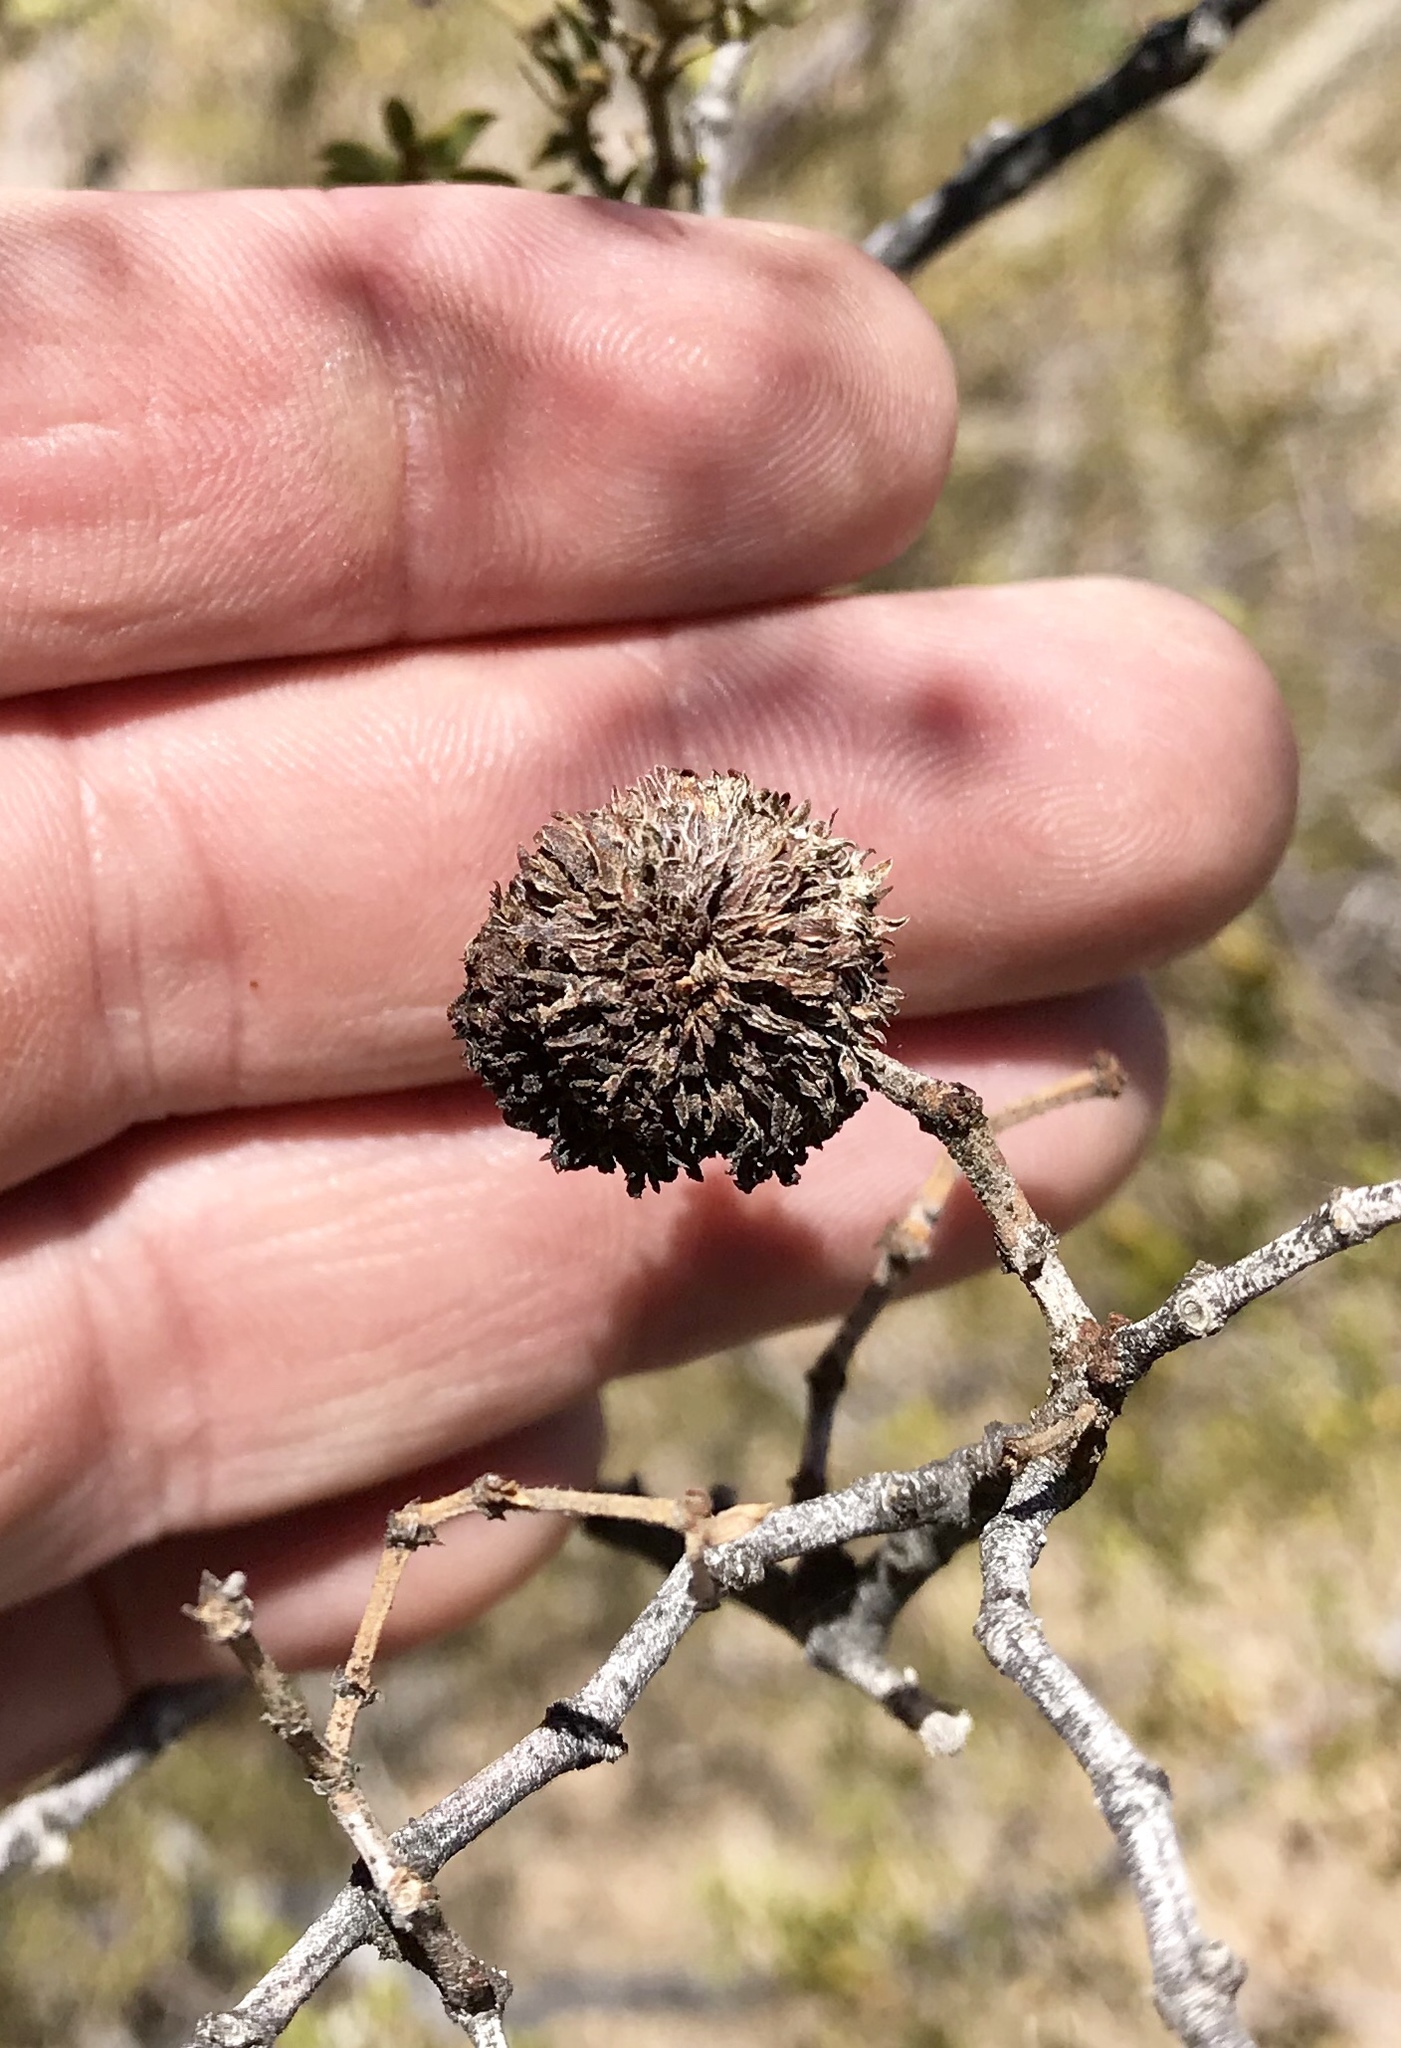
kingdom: Animalia
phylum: Arthropoda
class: Insecta
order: Diptera
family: Cecidomyiidae
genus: Asphondylia
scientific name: Asphondylia auripila
